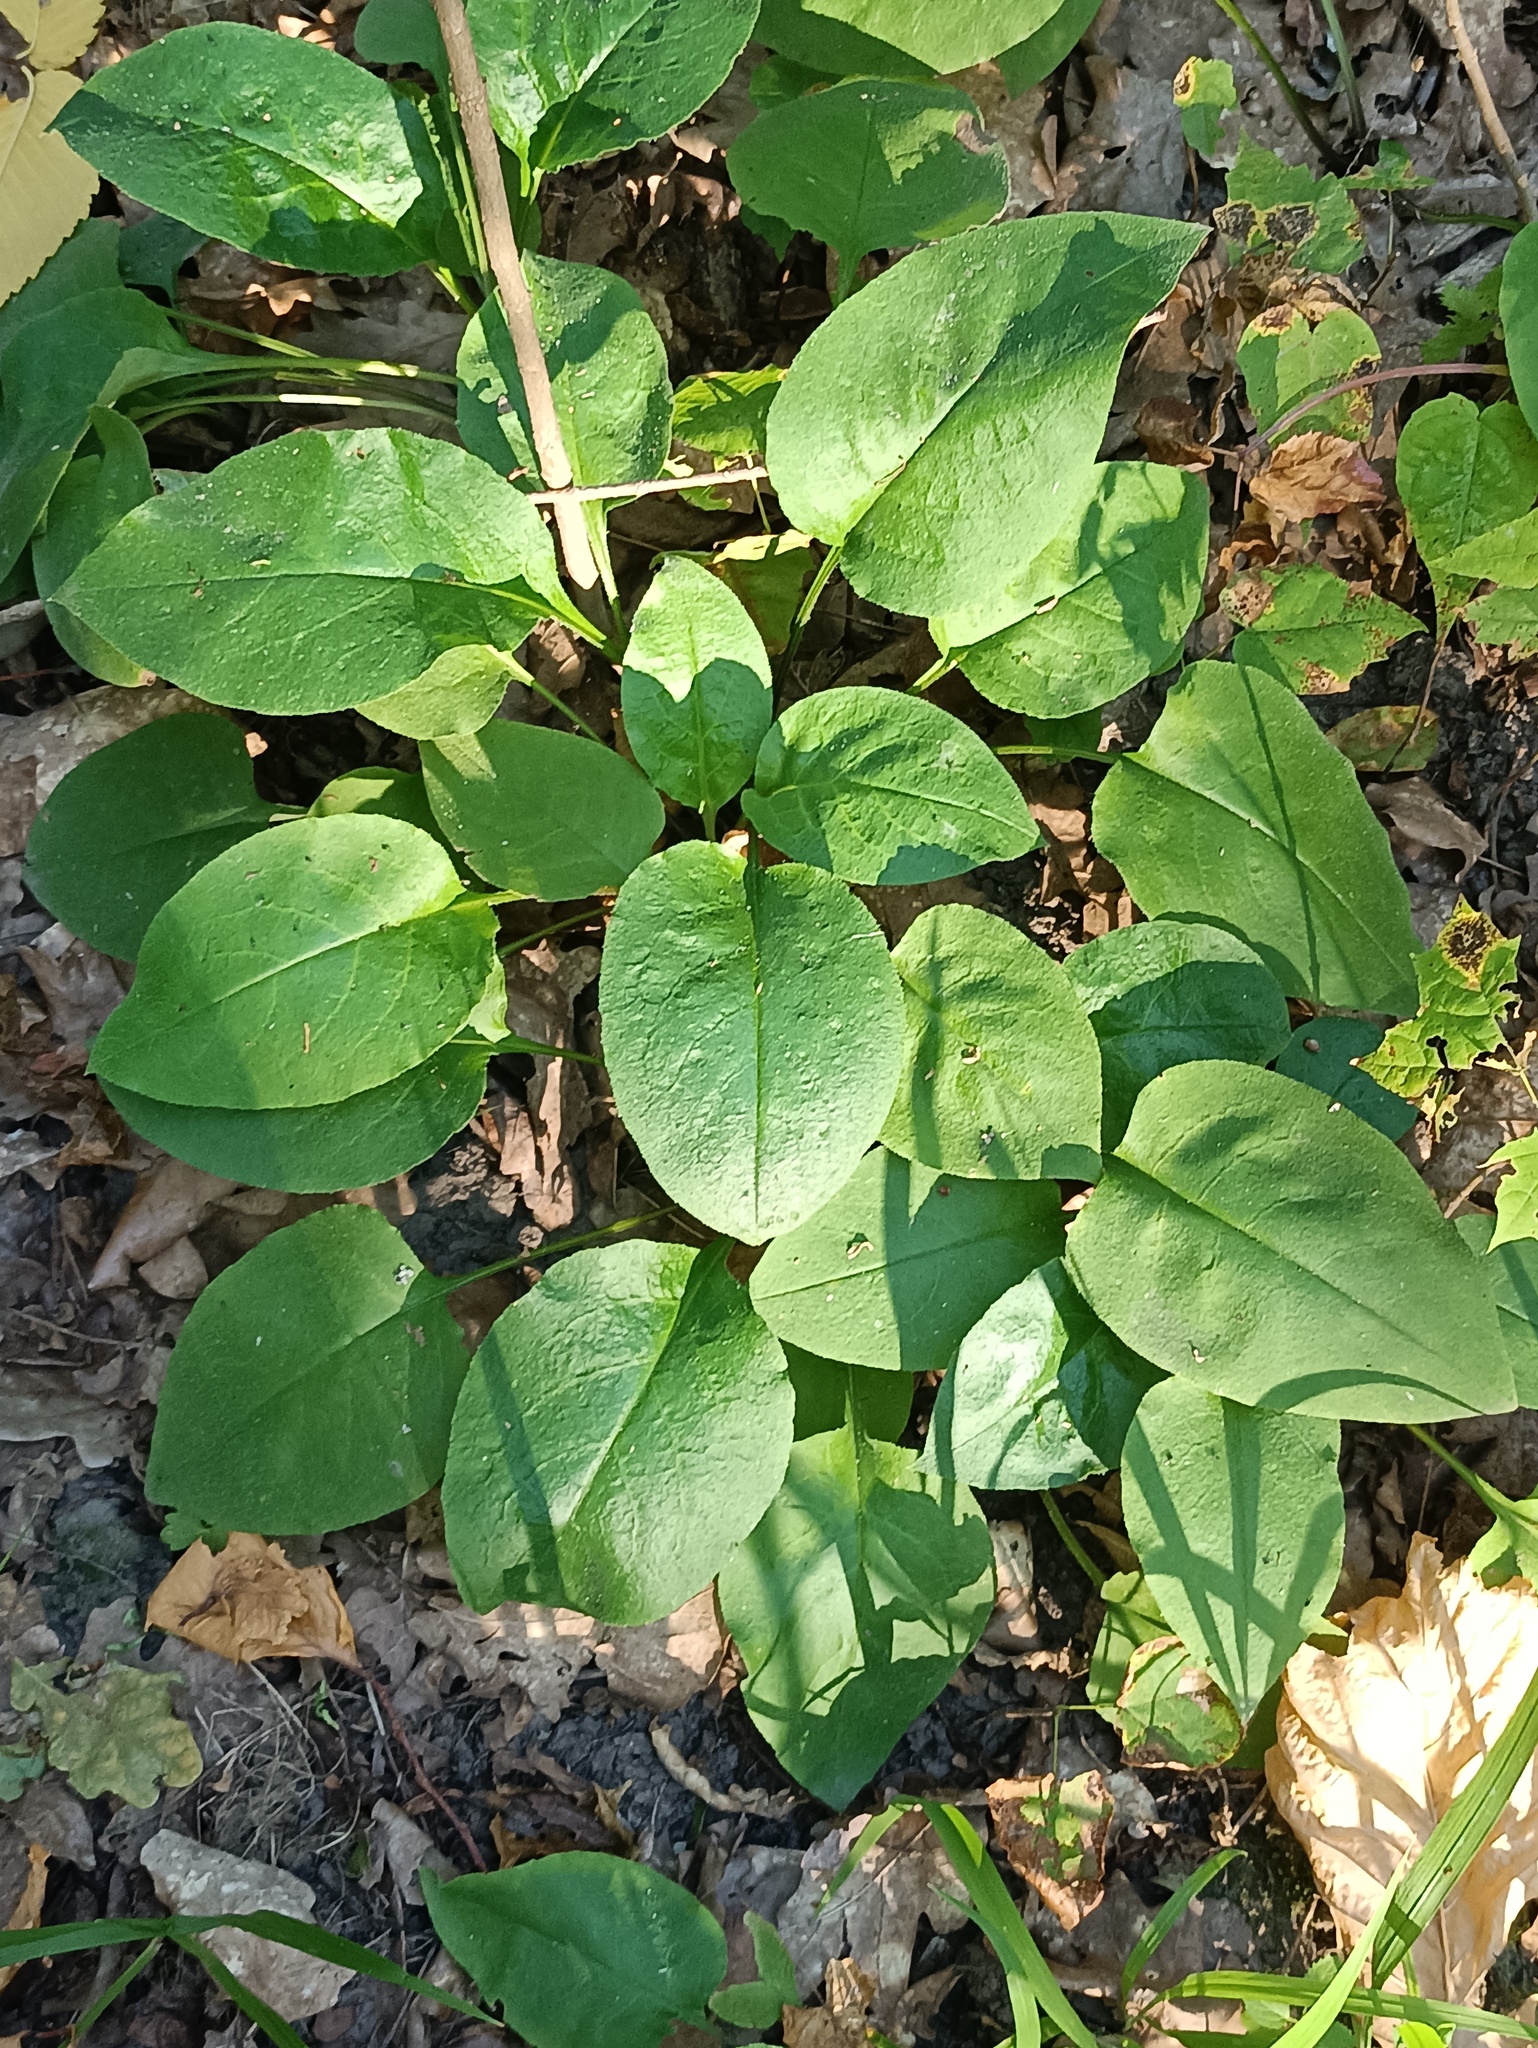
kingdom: Plantae
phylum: Tracheophyta
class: Magnoliopsida
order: Boraginales
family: Boraginaceae
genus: Pulmonaria
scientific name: Pulmonaria obscura
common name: Suffolk lungwort
